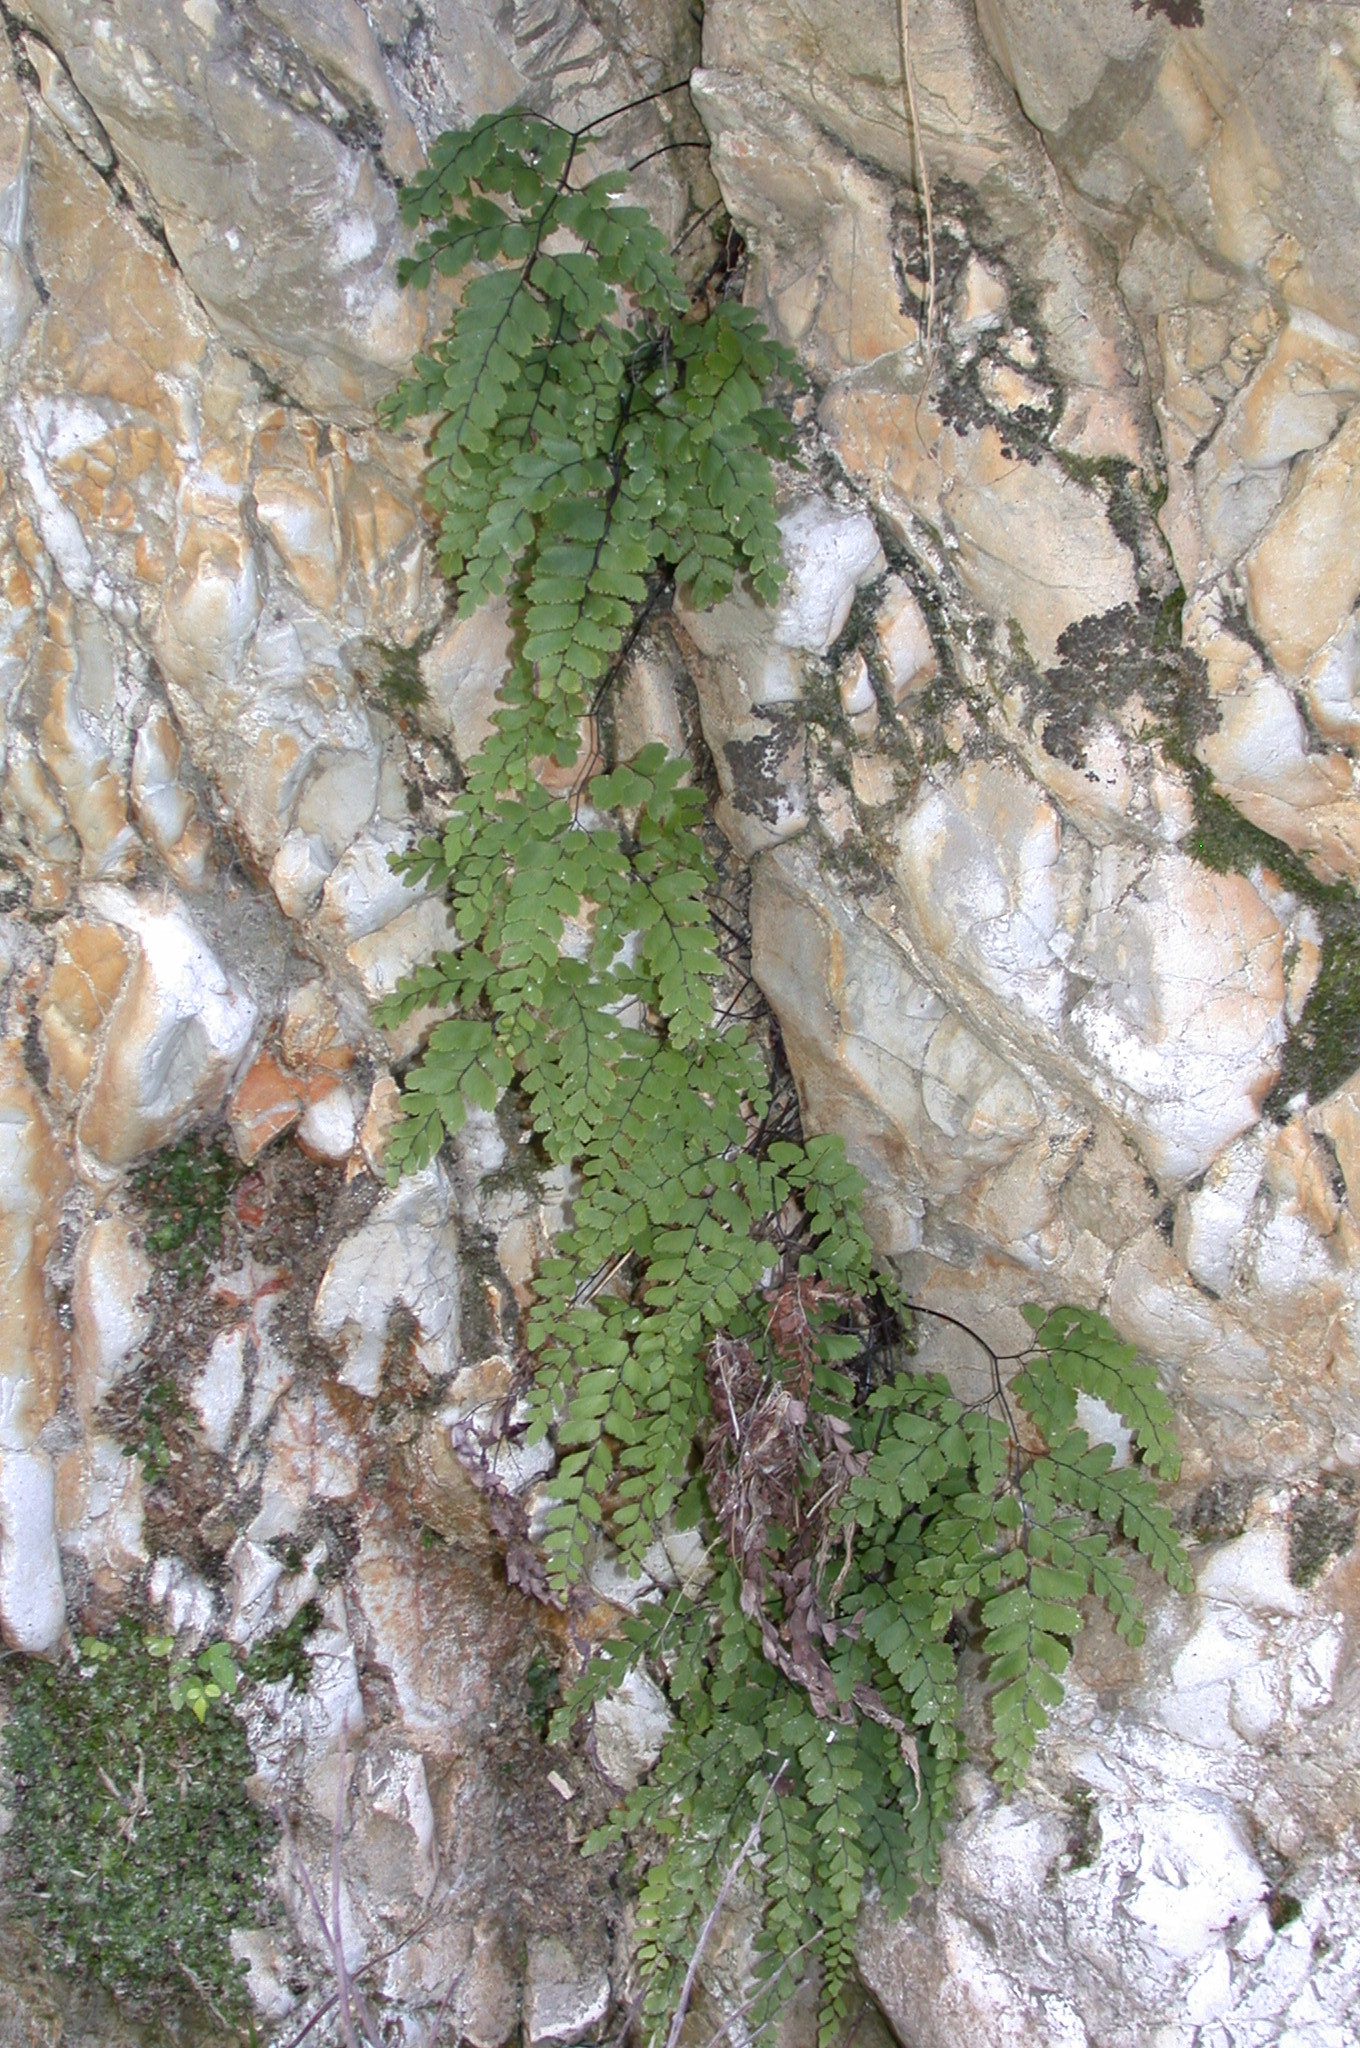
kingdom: Plantae
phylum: Tracheophyta
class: Polypodiopsida
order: Polypodiales
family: Pteridaceae
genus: Adiantum
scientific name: Adiantum cunninghamii
